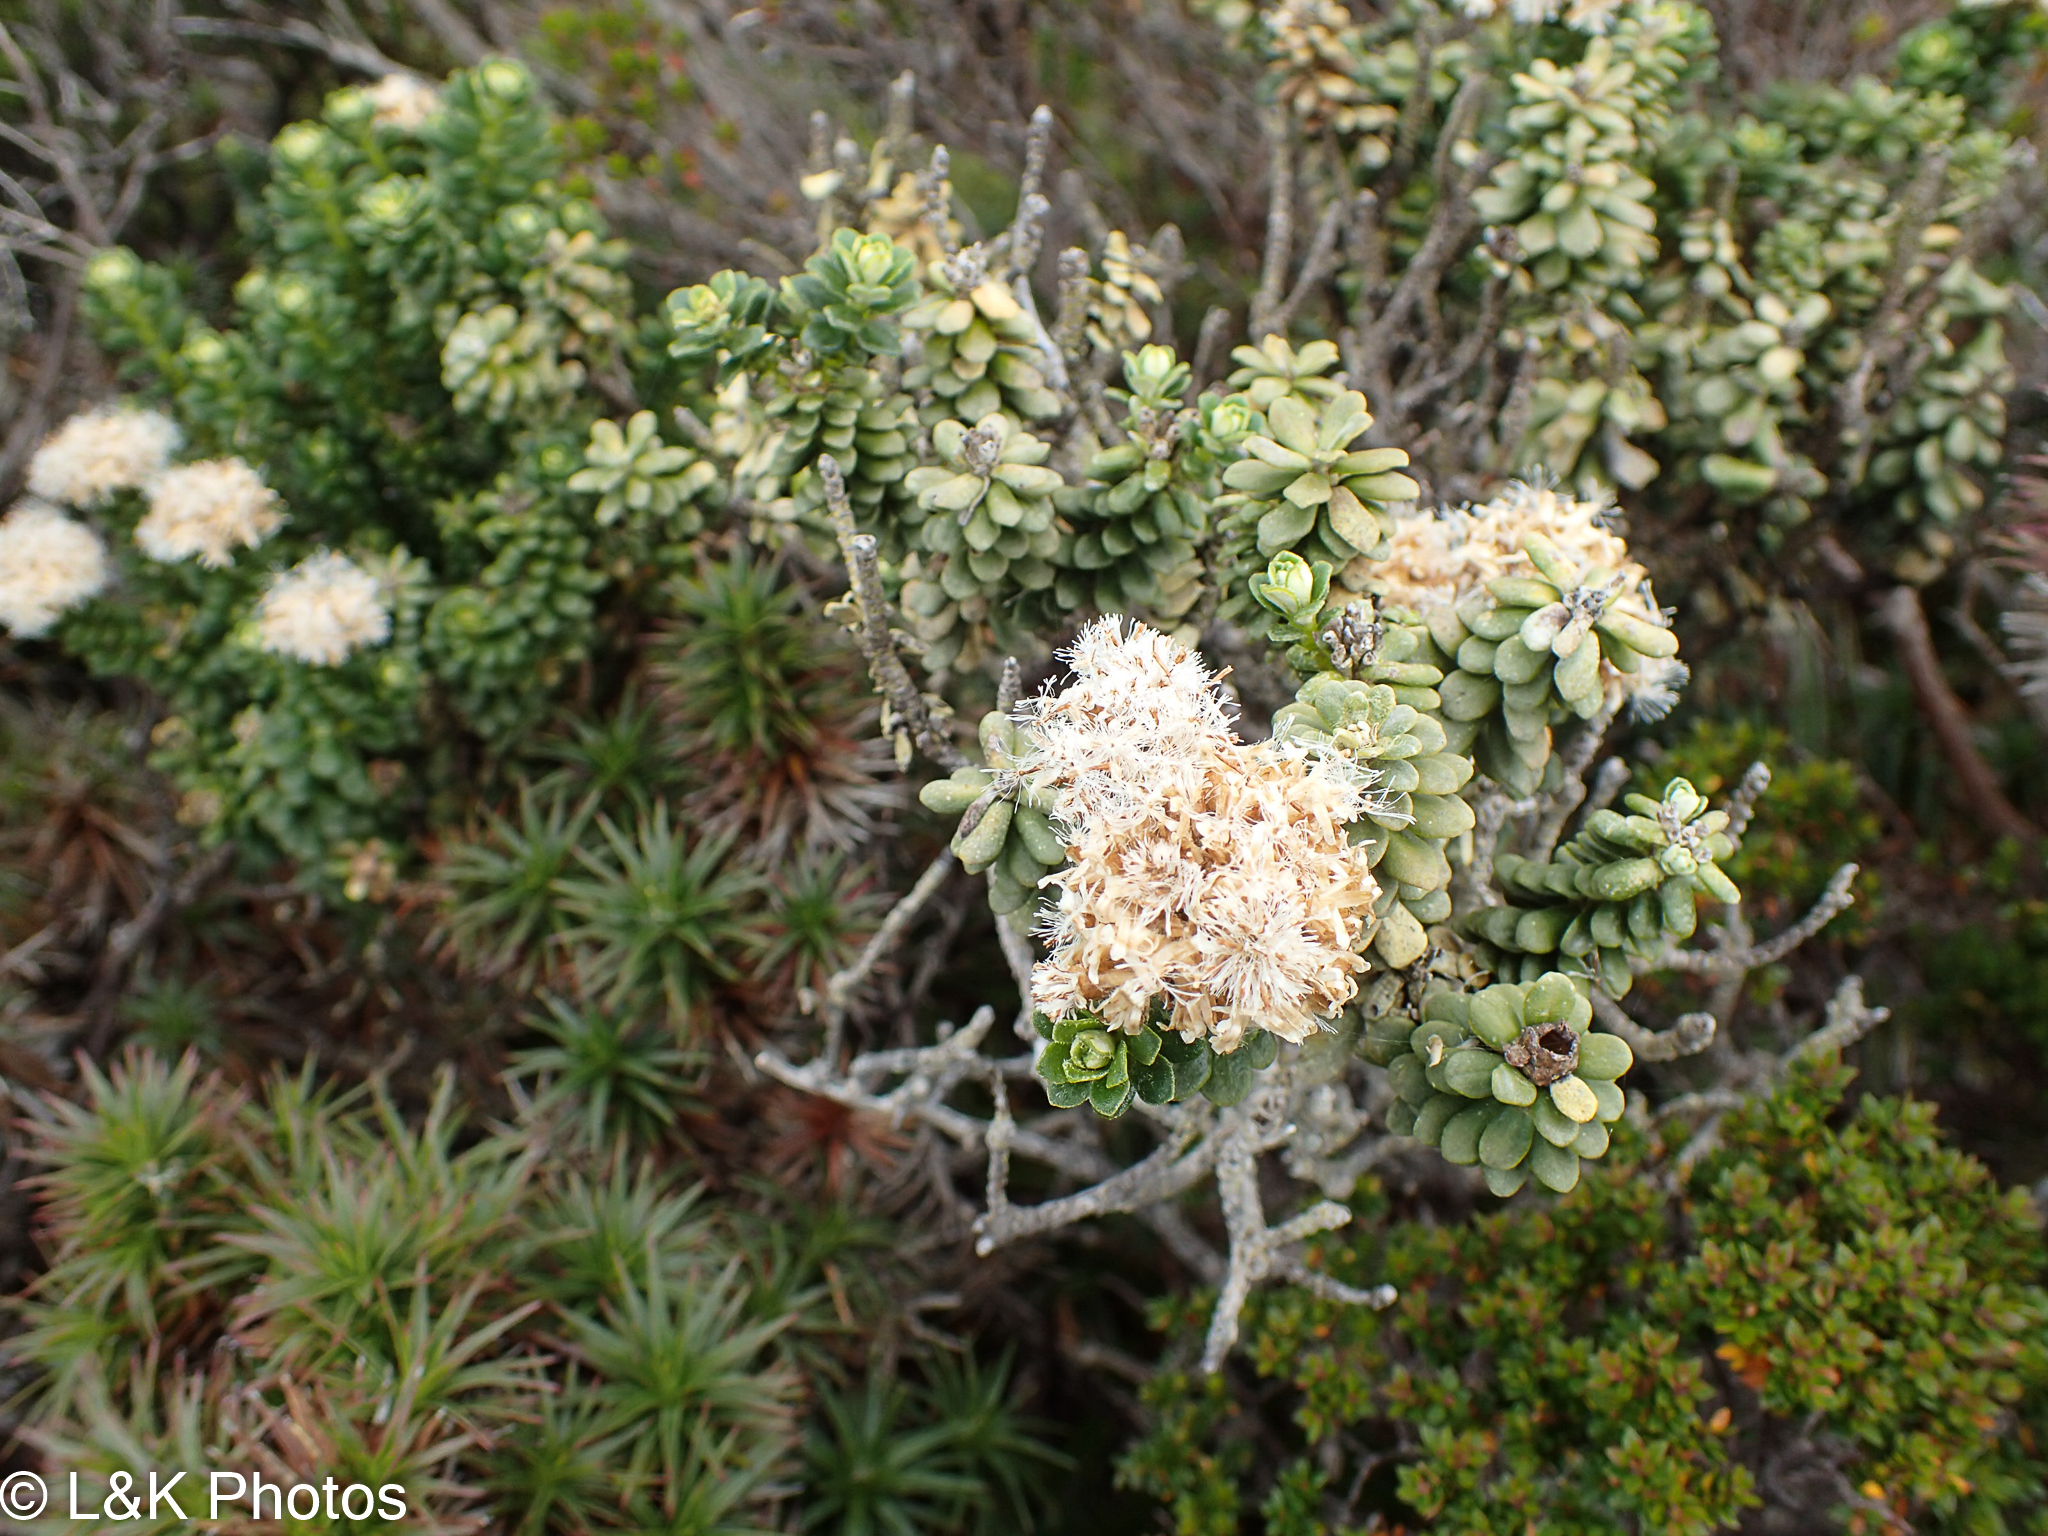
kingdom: Plantae
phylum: Tracheophyta
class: Magnoliopsida
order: Asterales
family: Asteraceae
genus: Ozothamnus
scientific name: Ozothamnus rodwayi
